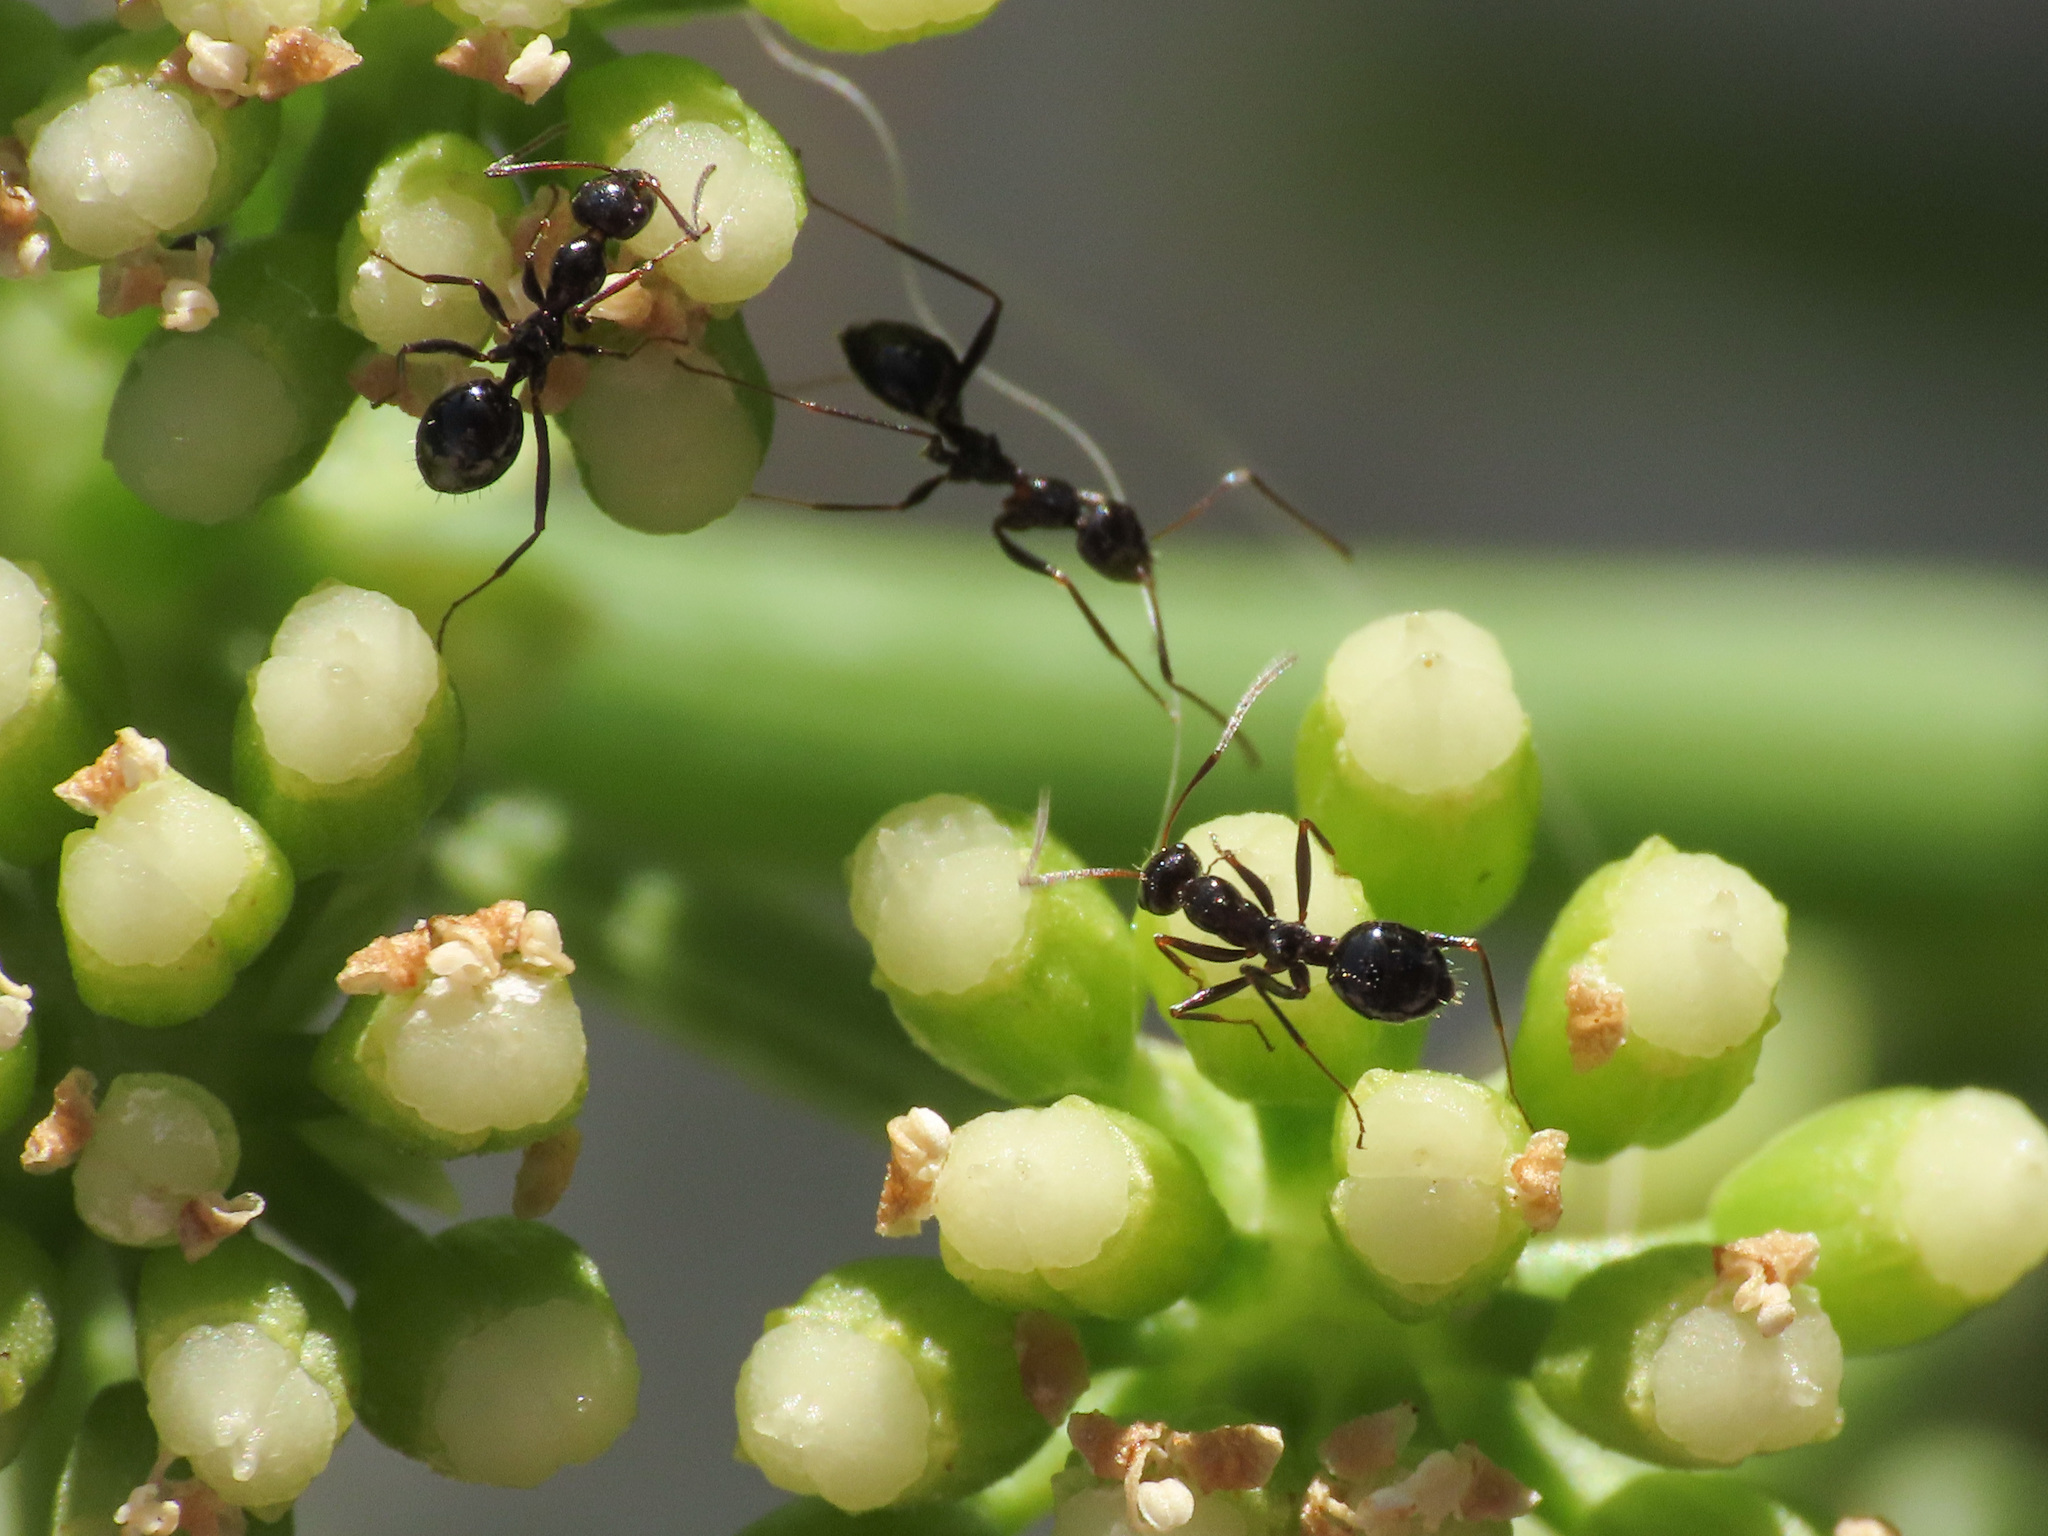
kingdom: Animalia
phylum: Arthropoda
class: Insecta
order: Hymenoptera
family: Formicidae
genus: Lepisiota
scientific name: Lepisiota nigra
